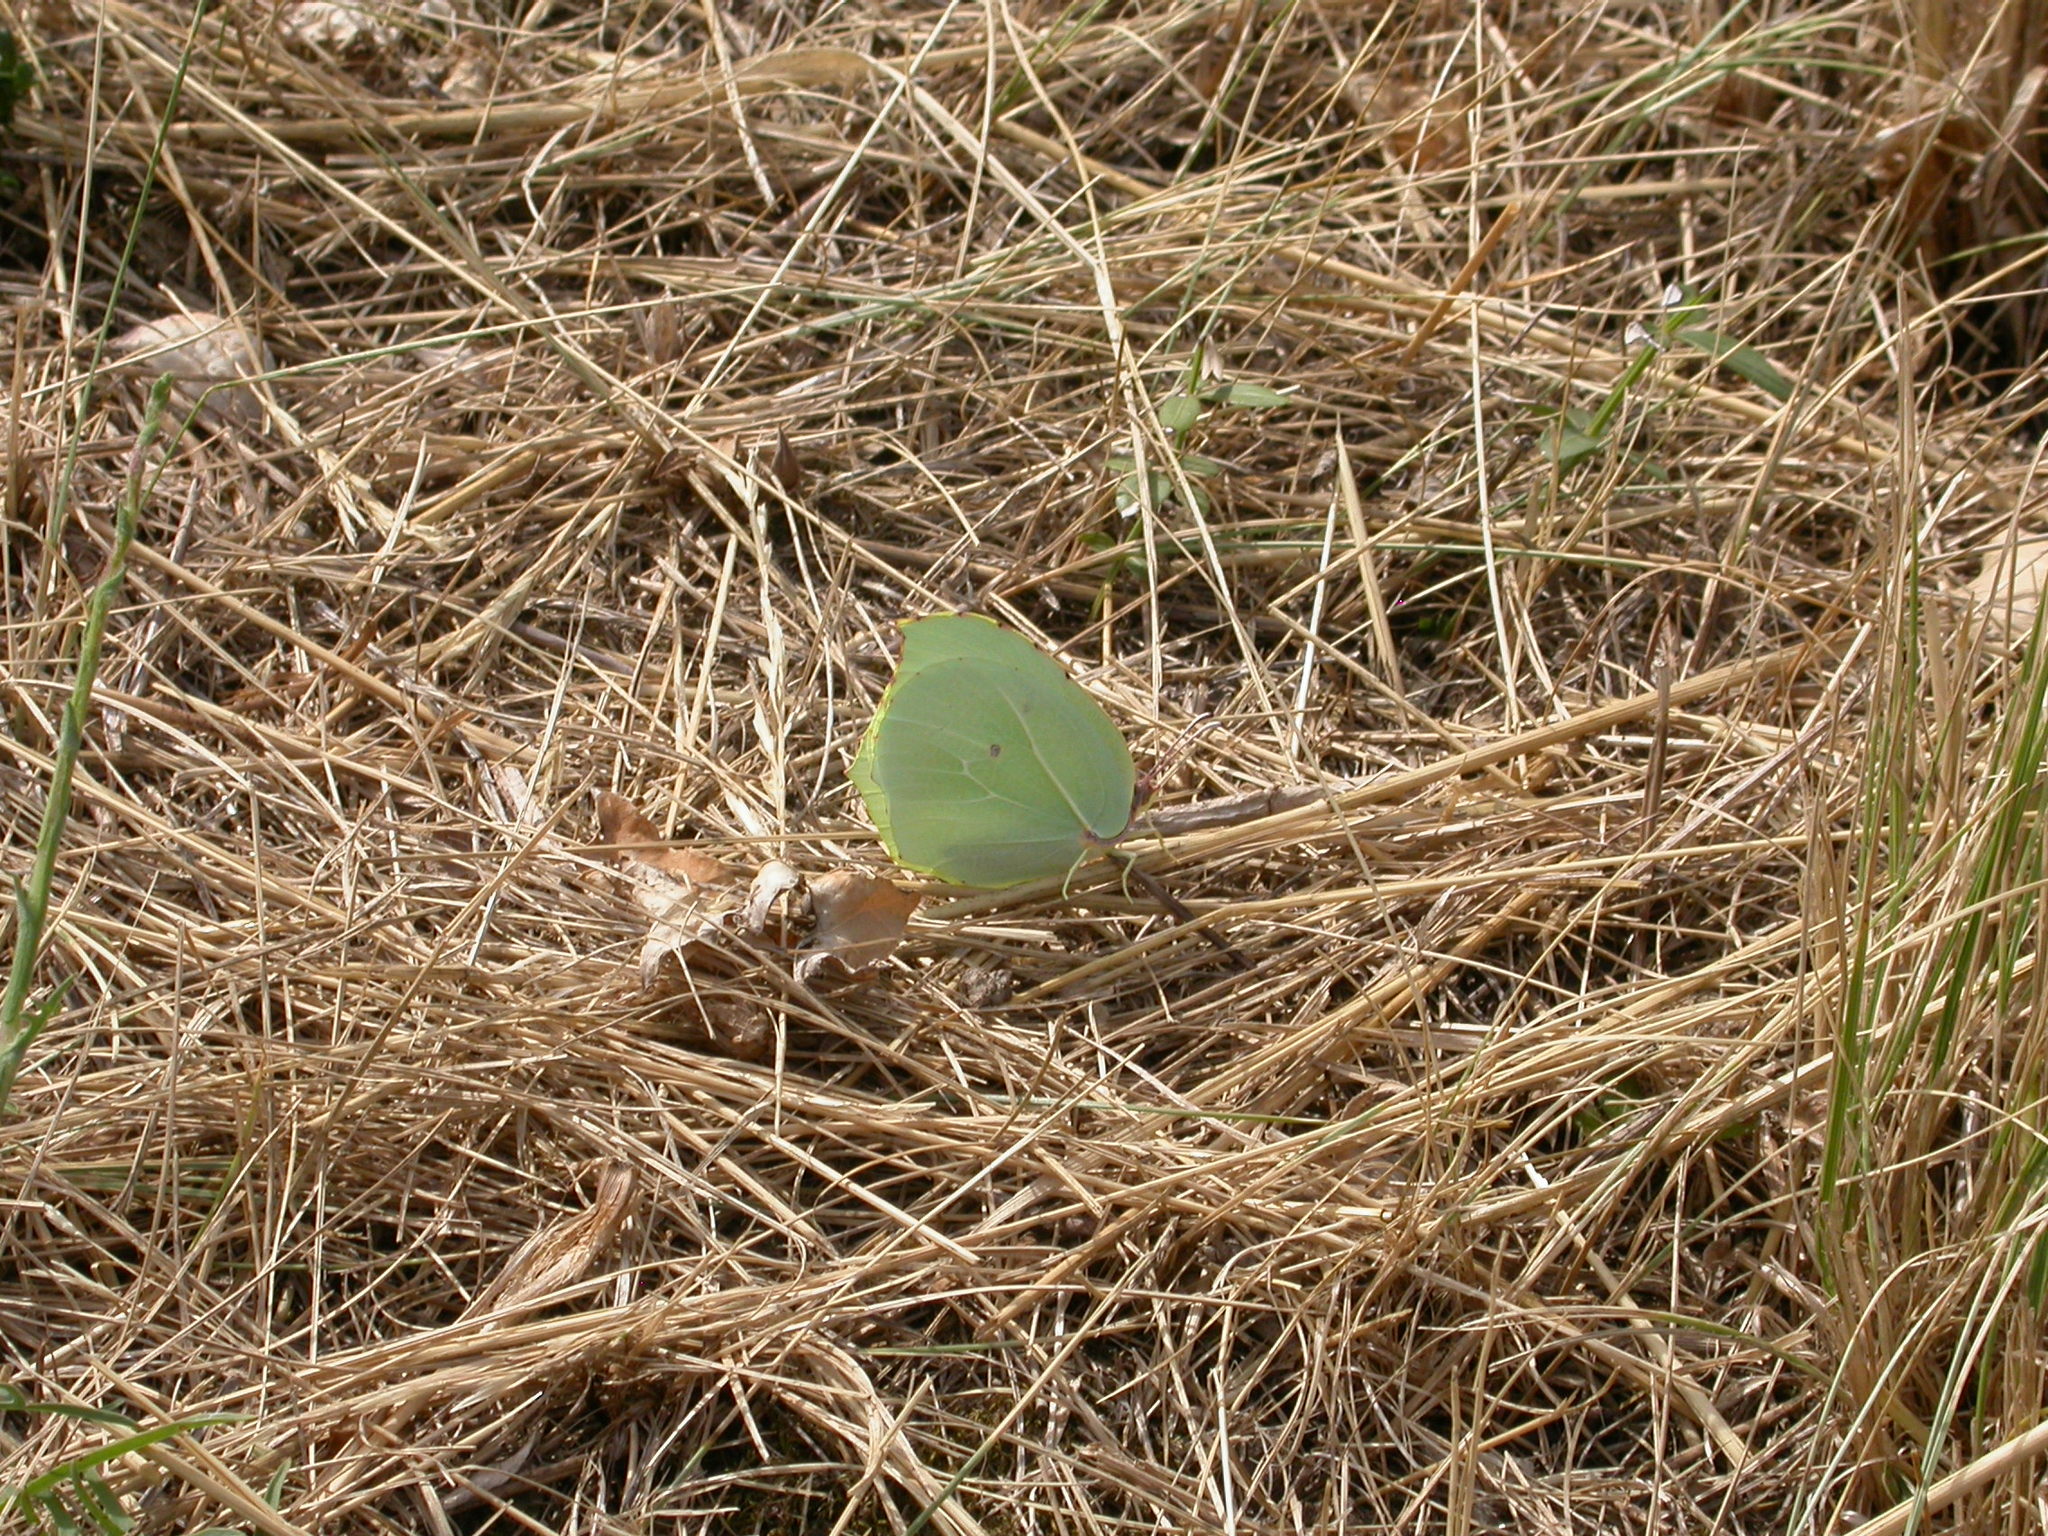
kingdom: Animalia
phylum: Arthropoda
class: Insecta
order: Lepidoptera
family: Pieridae
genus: Gonepteryx
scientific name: Gonepteryx cleopatra
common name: Cleopatra
